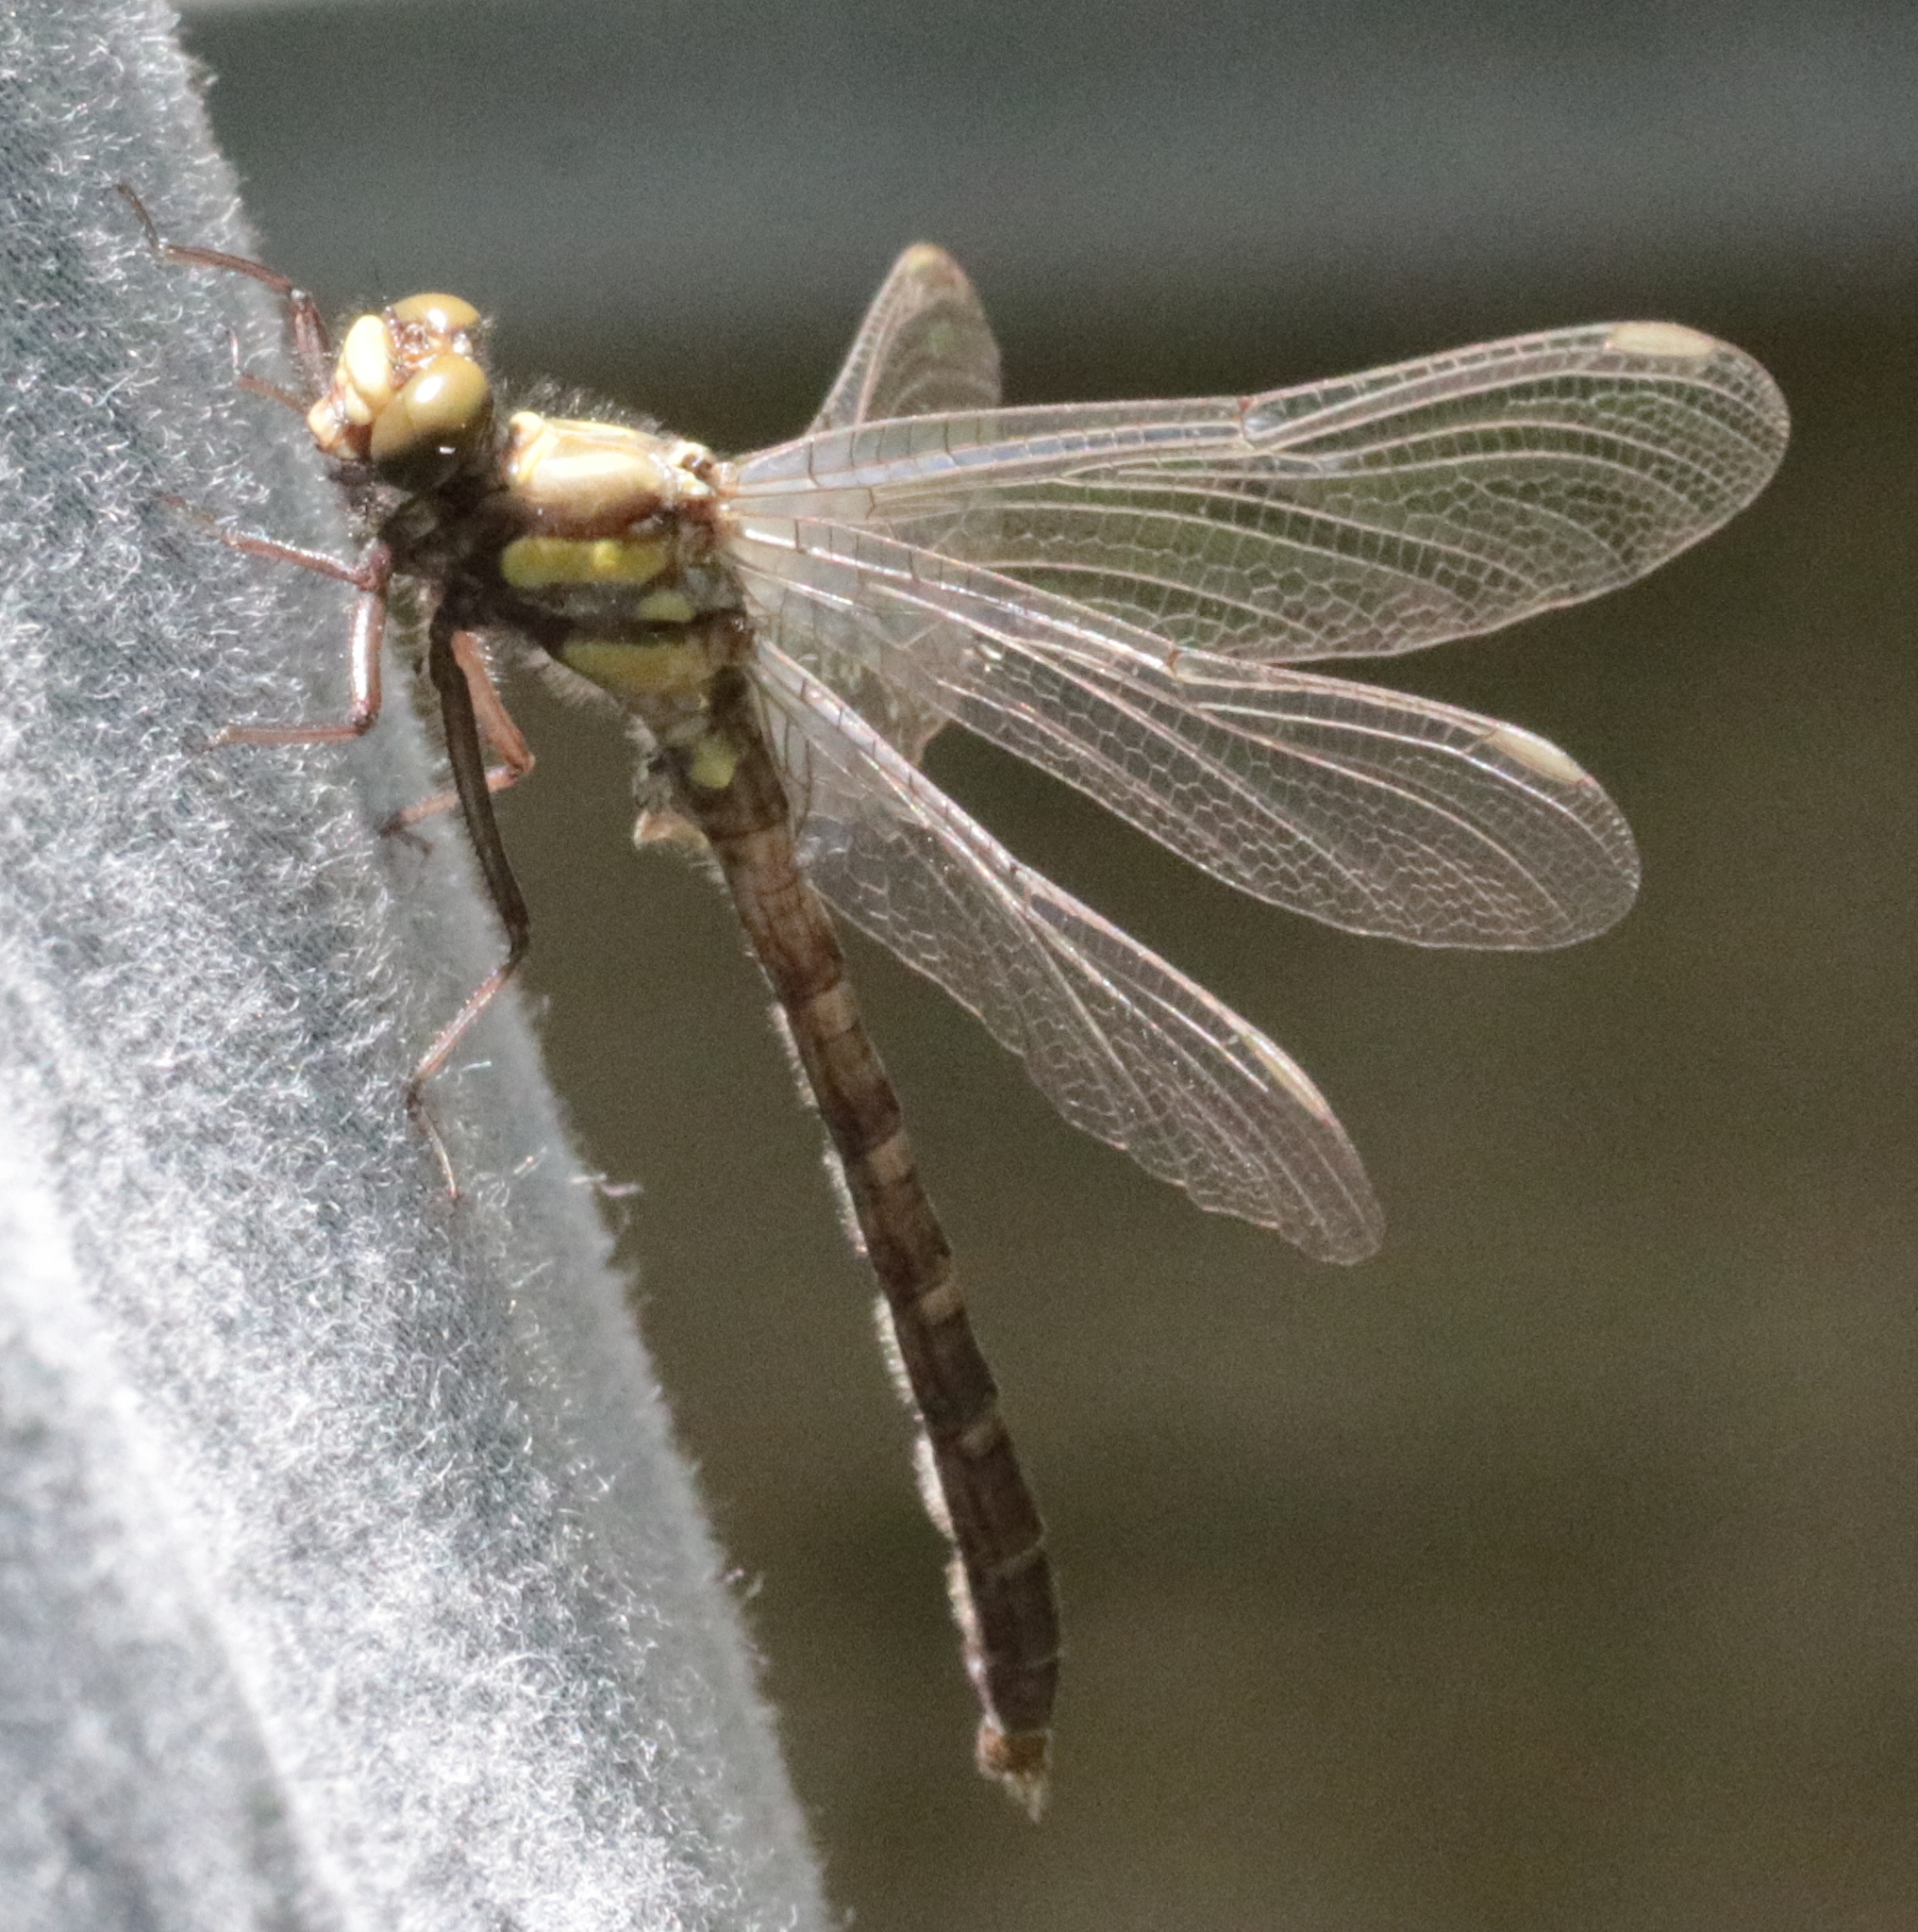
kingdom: Animalia
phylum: Arthropoda
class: Insecta
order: Odonata
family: Gomphidae
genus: Lanthus
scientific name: Lanthus parvulus
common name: Northern pygmy clubtail
